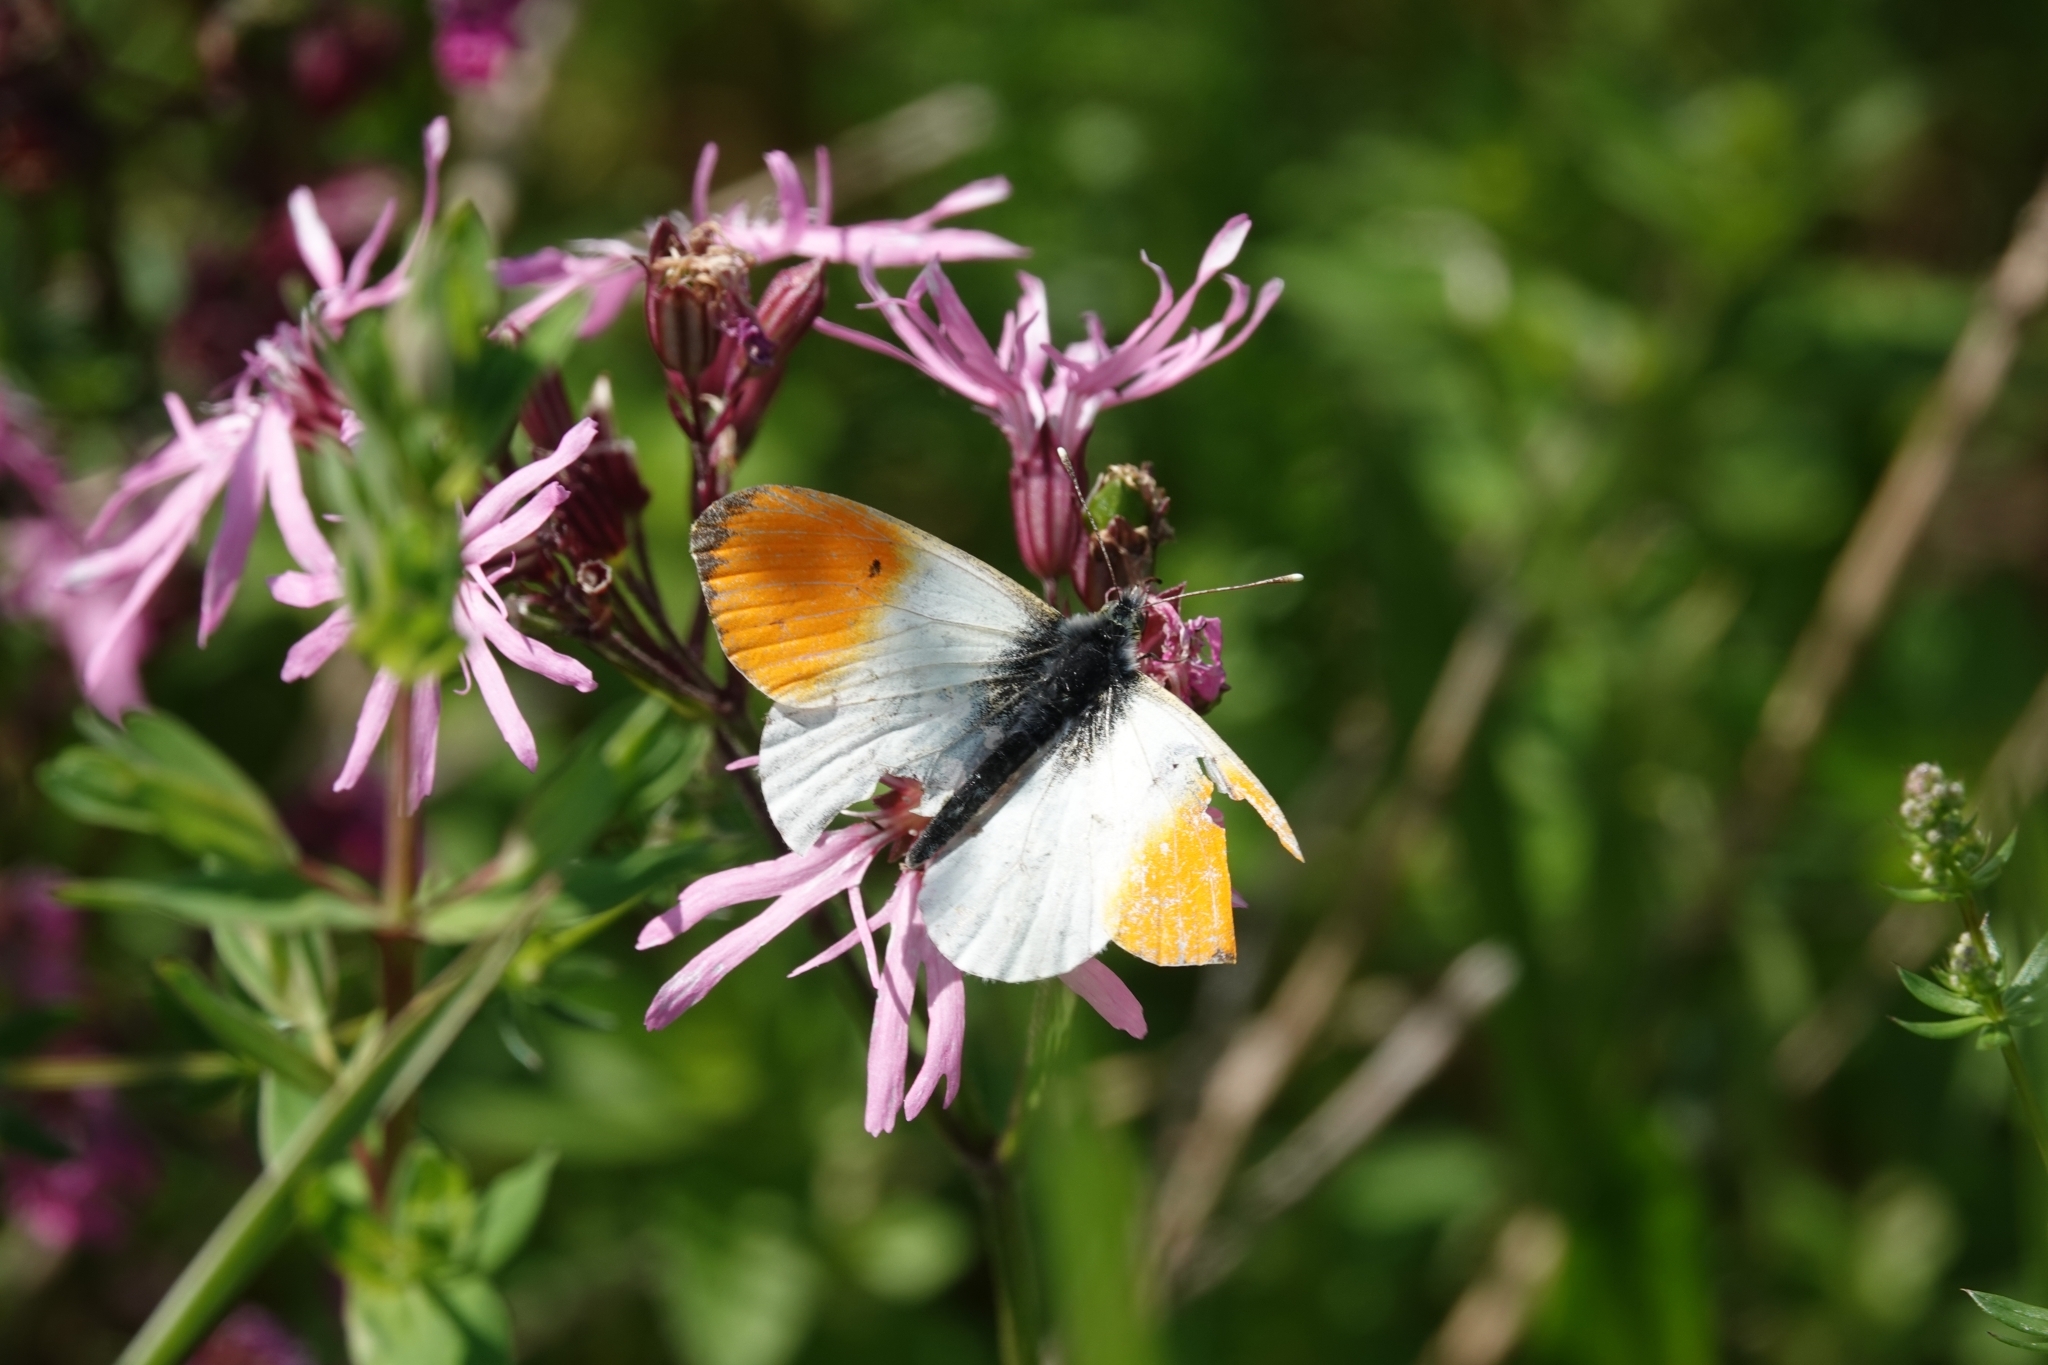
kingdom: Animalia
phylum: Arthropoda
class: Insecta
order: Lepidoptera
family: Pieridae
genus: Anthocharis
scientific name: Anthocharis cardamines
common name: Orange-tip
